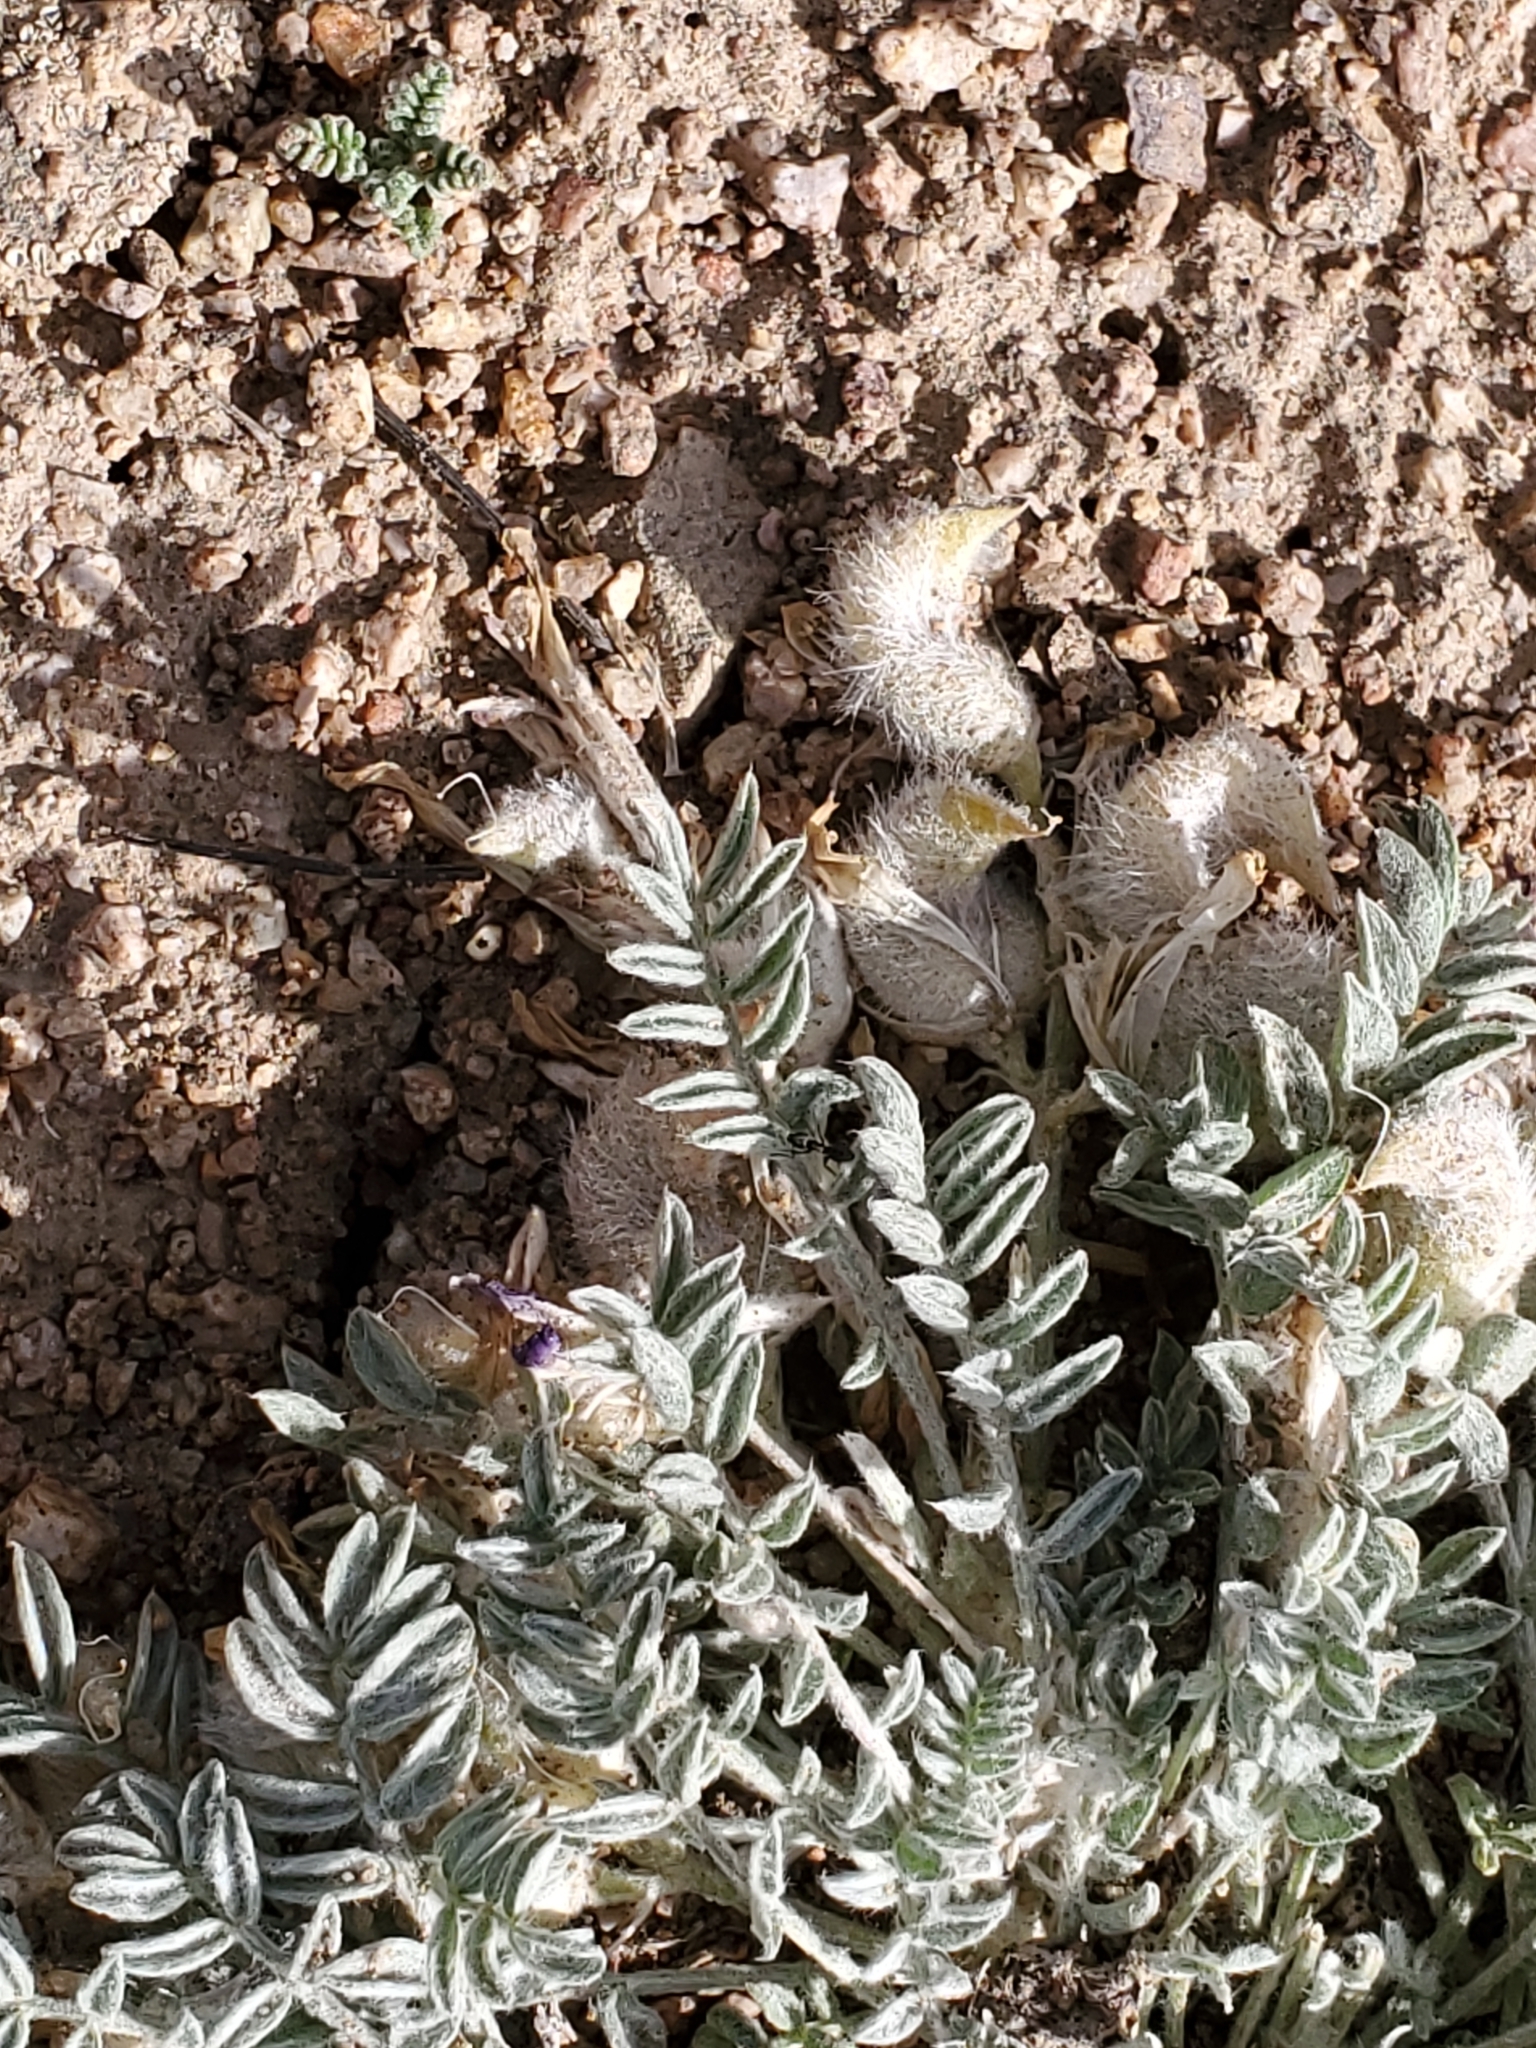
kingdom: Plantae
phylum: Tracheophyta
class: Magnoliopsida
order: Fabales
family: Fabaceae
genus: Astragalus
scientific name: Astragalus purshii
